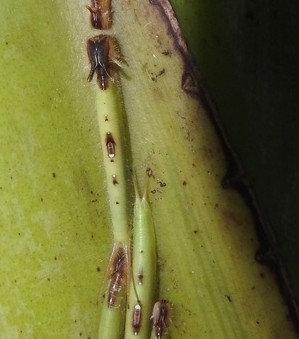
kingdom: Animalia
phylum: Arthropoda
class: Insecta
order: Lepidoptera
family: Nymphalidae
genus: Caligo
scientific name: Caligo telamonius
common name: Pale owl-butterfly
